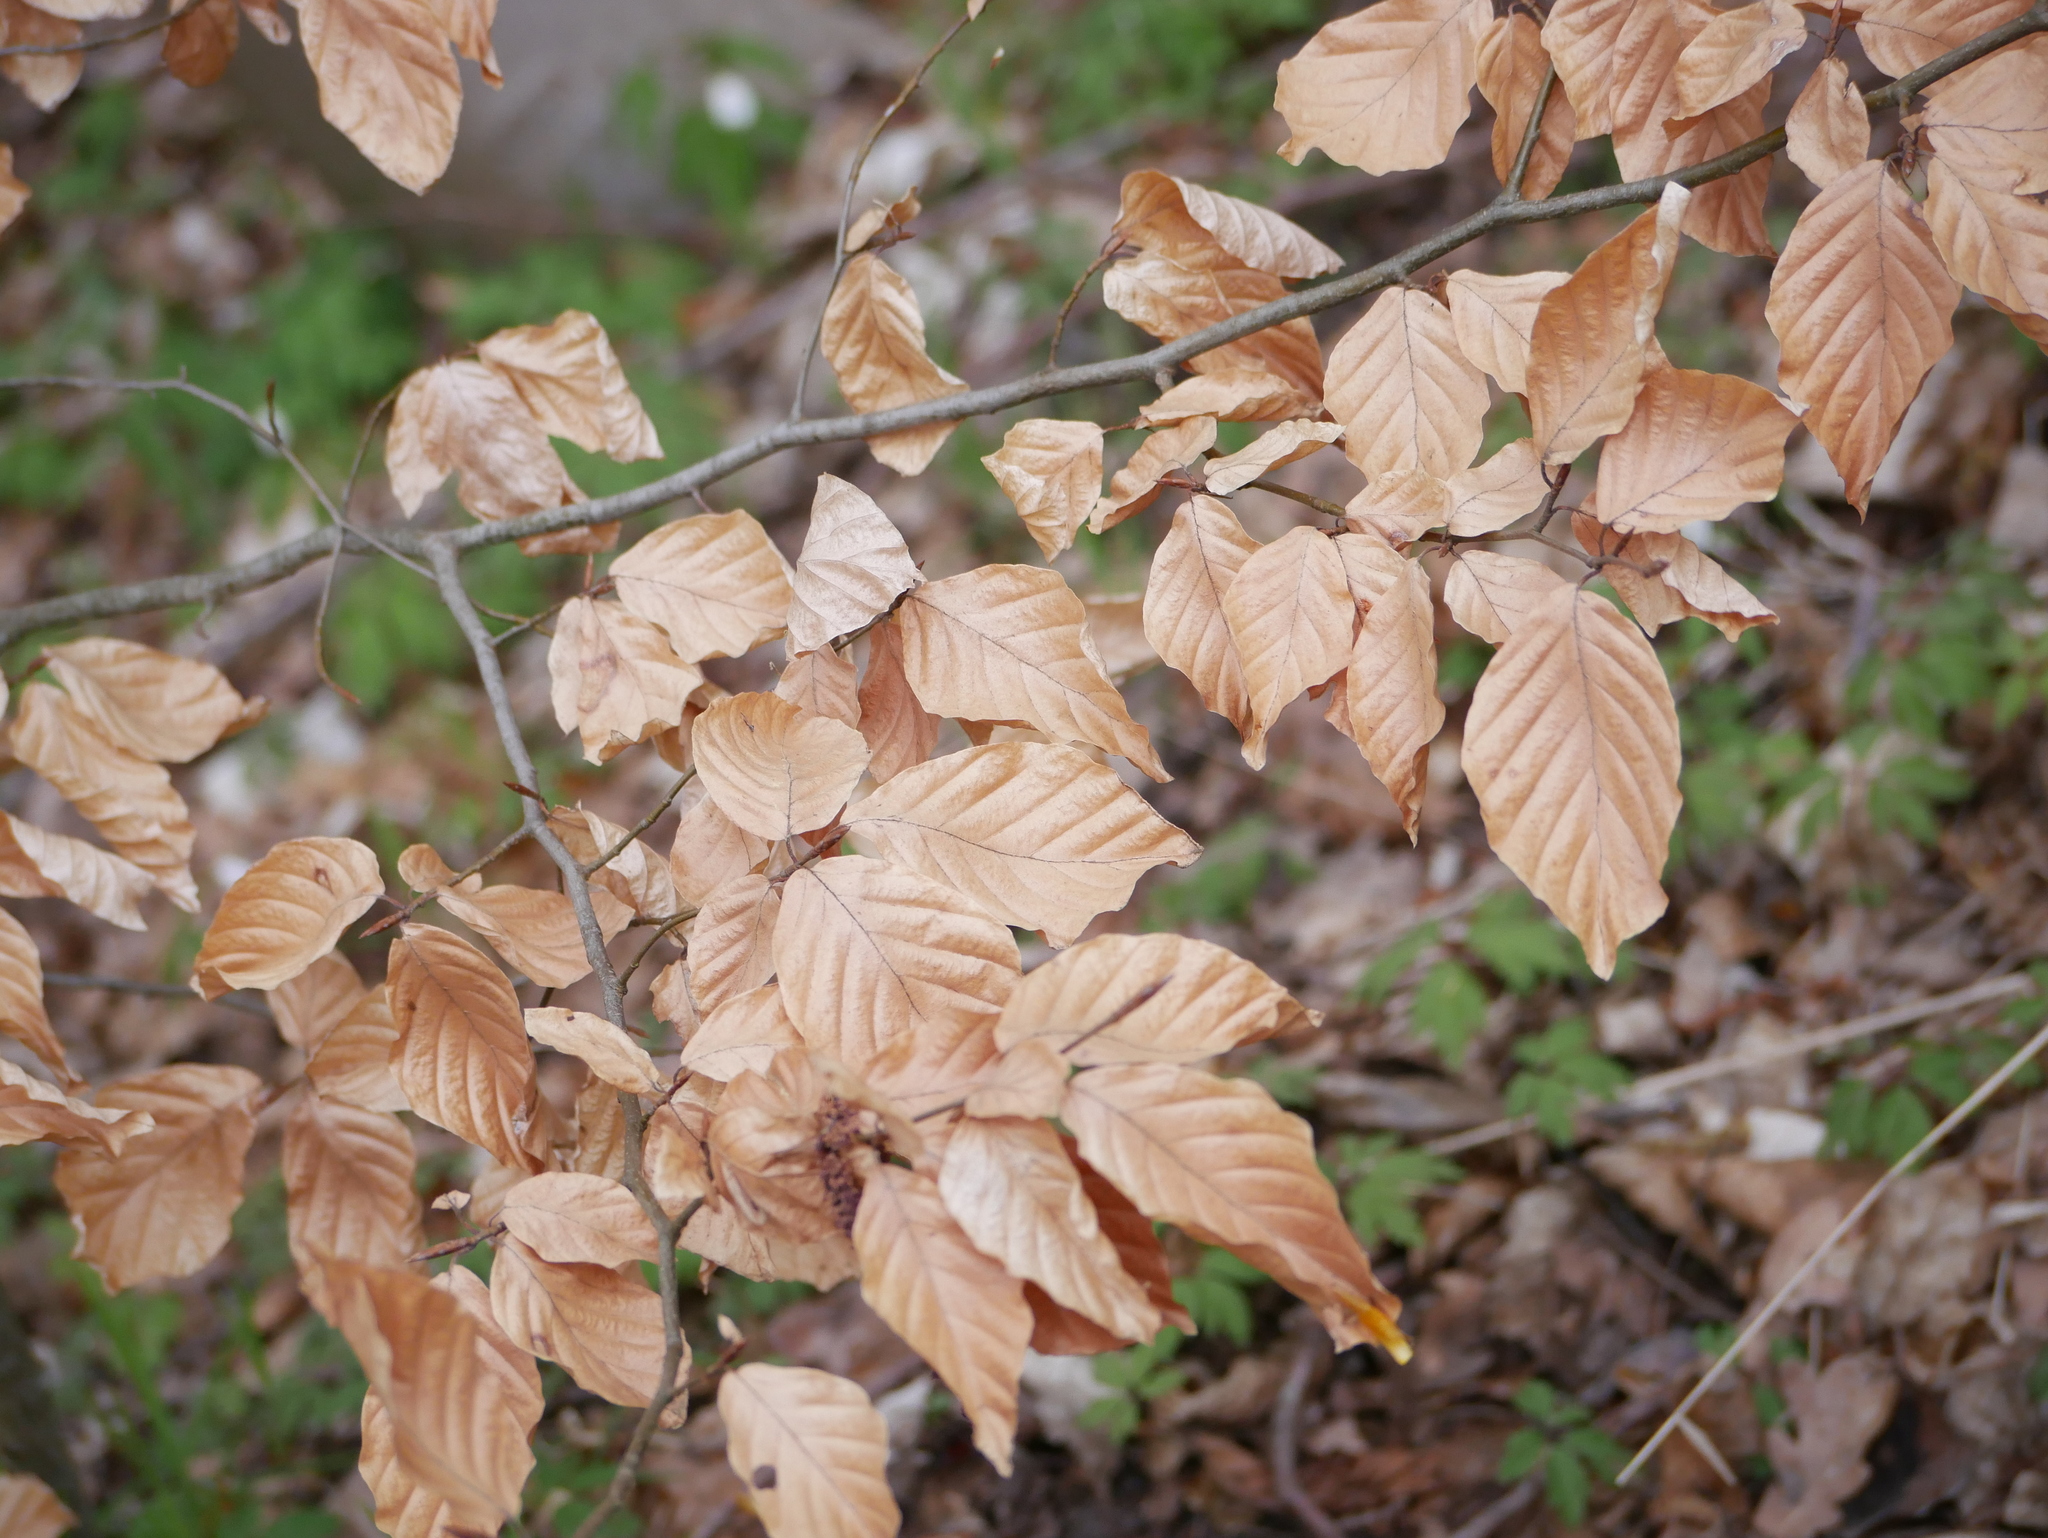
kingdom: Plantae
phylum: Tracheophyta
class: Magnoliopsida
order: Fagales
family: Fagaceae
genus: Fagus
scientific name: Fagus sylvatica
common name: Beech
